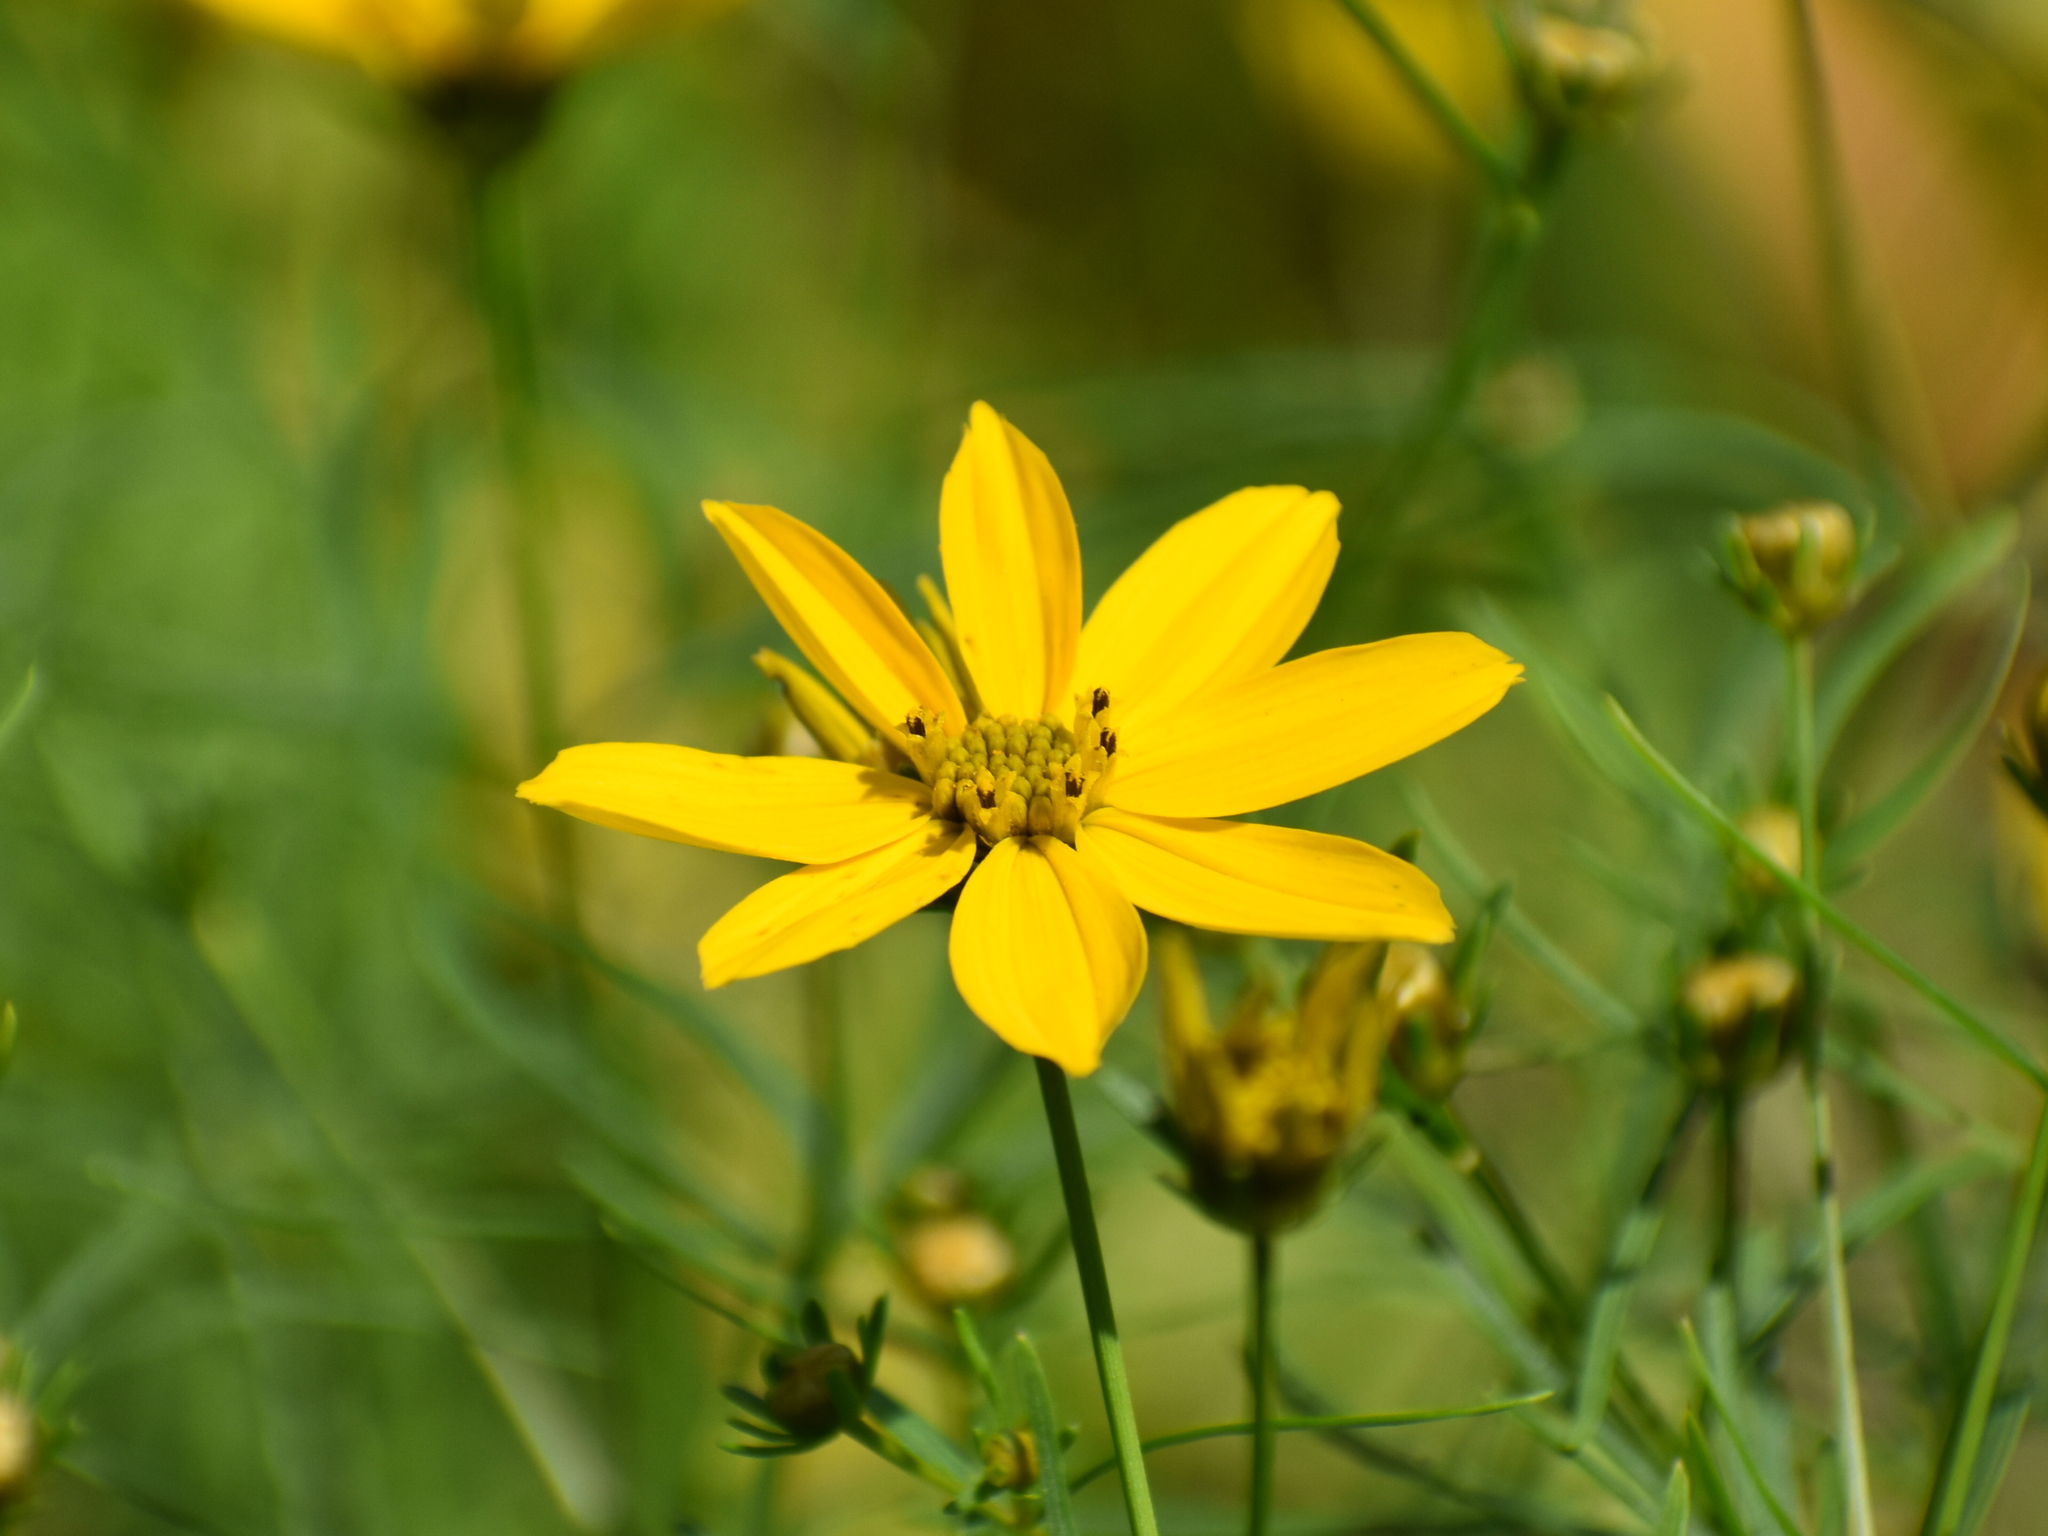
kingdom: Plantae
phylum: Tracheophyta
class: Magnoliopsida
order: Asterales
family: Asteraceae
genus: Coreopsis
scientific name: Coreopsis verticillata
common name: Whorled tickseed
